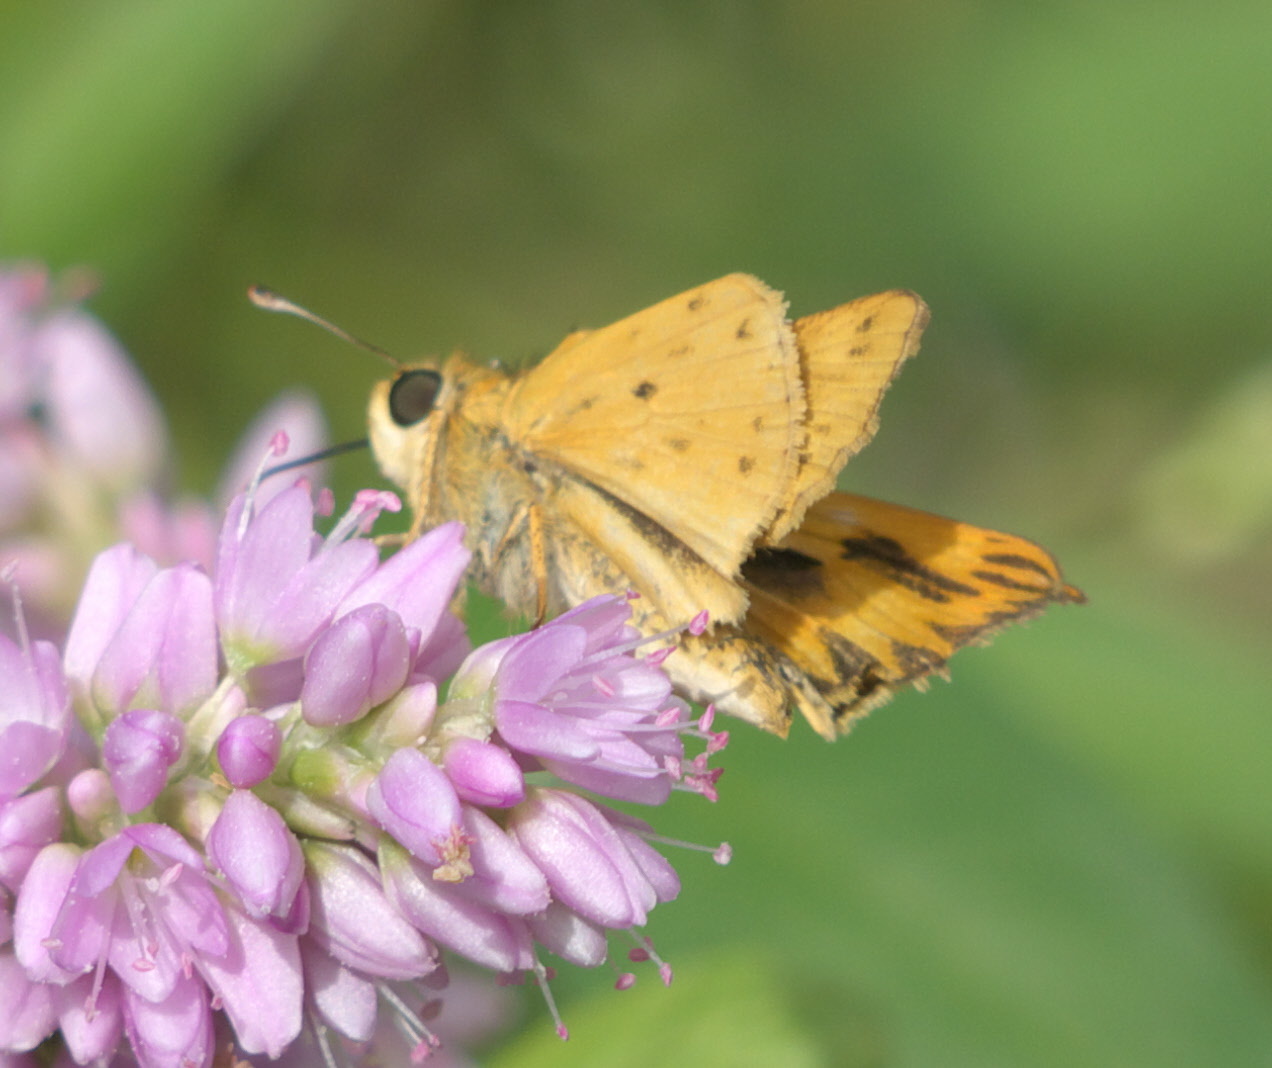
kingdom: Animalia
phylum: Arthropoda
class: Insecta
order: Lepidoptera
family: Hesperiidae
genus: Hylephila
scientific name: Hylephila phyleus
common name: Fiery skipper
